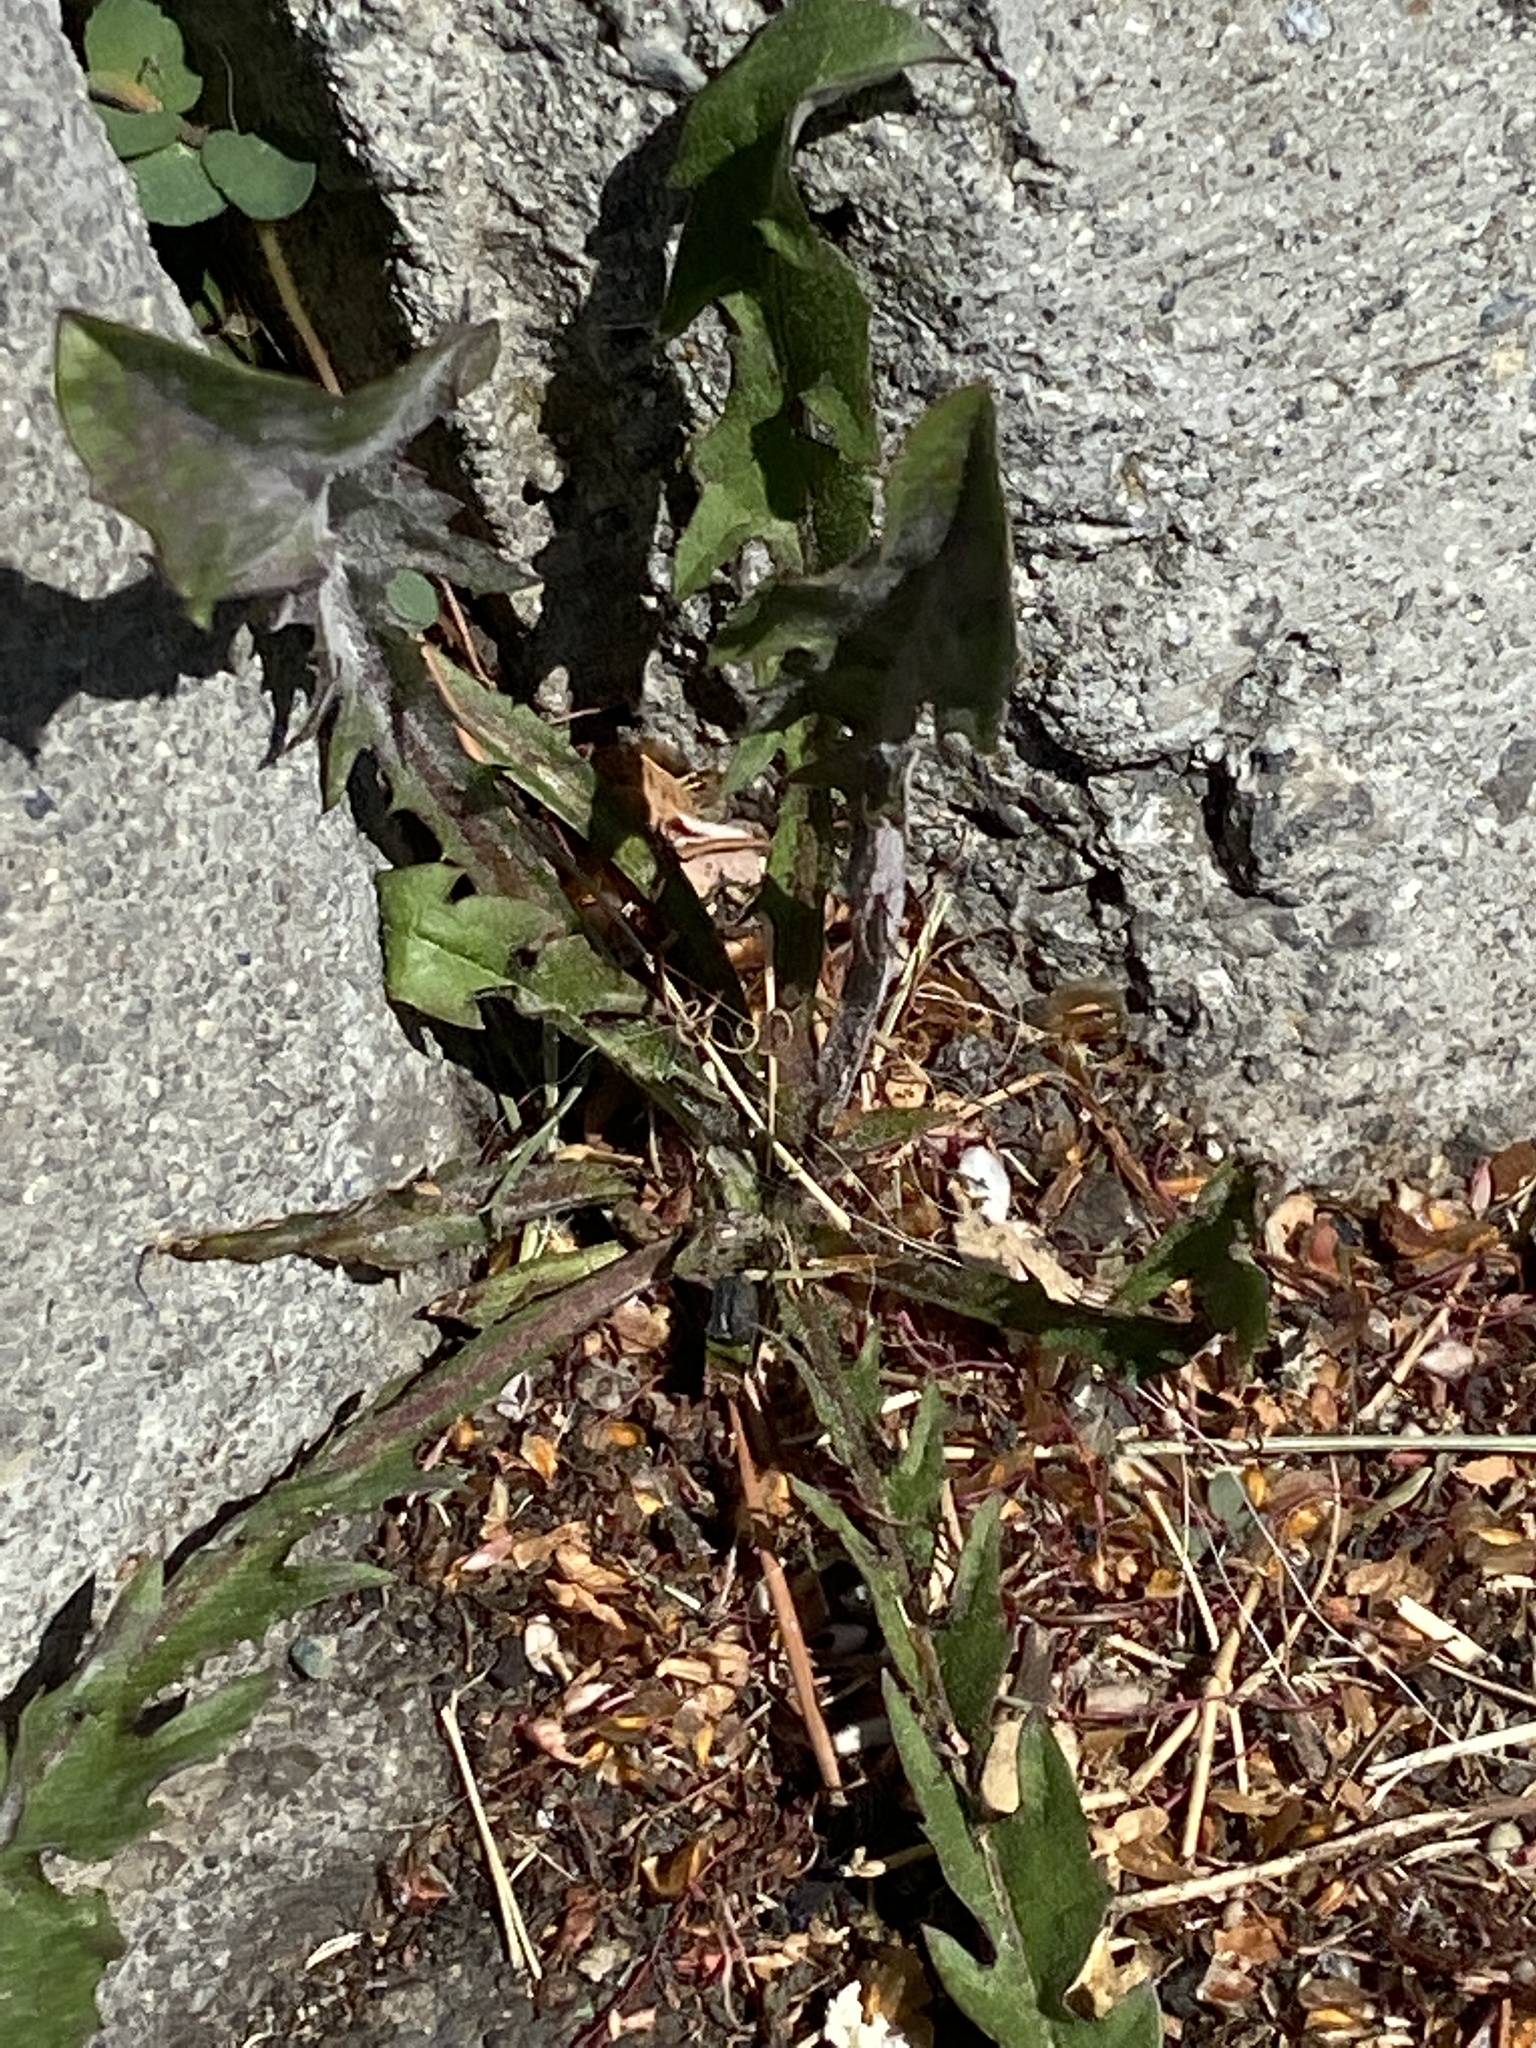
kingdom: Plantae
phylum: Tracheophyta
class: Magnoliopsida
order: Asterales
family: Asteraceae
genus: Taraxacum
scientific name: Taraxacum officinale
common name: Common dandelion
